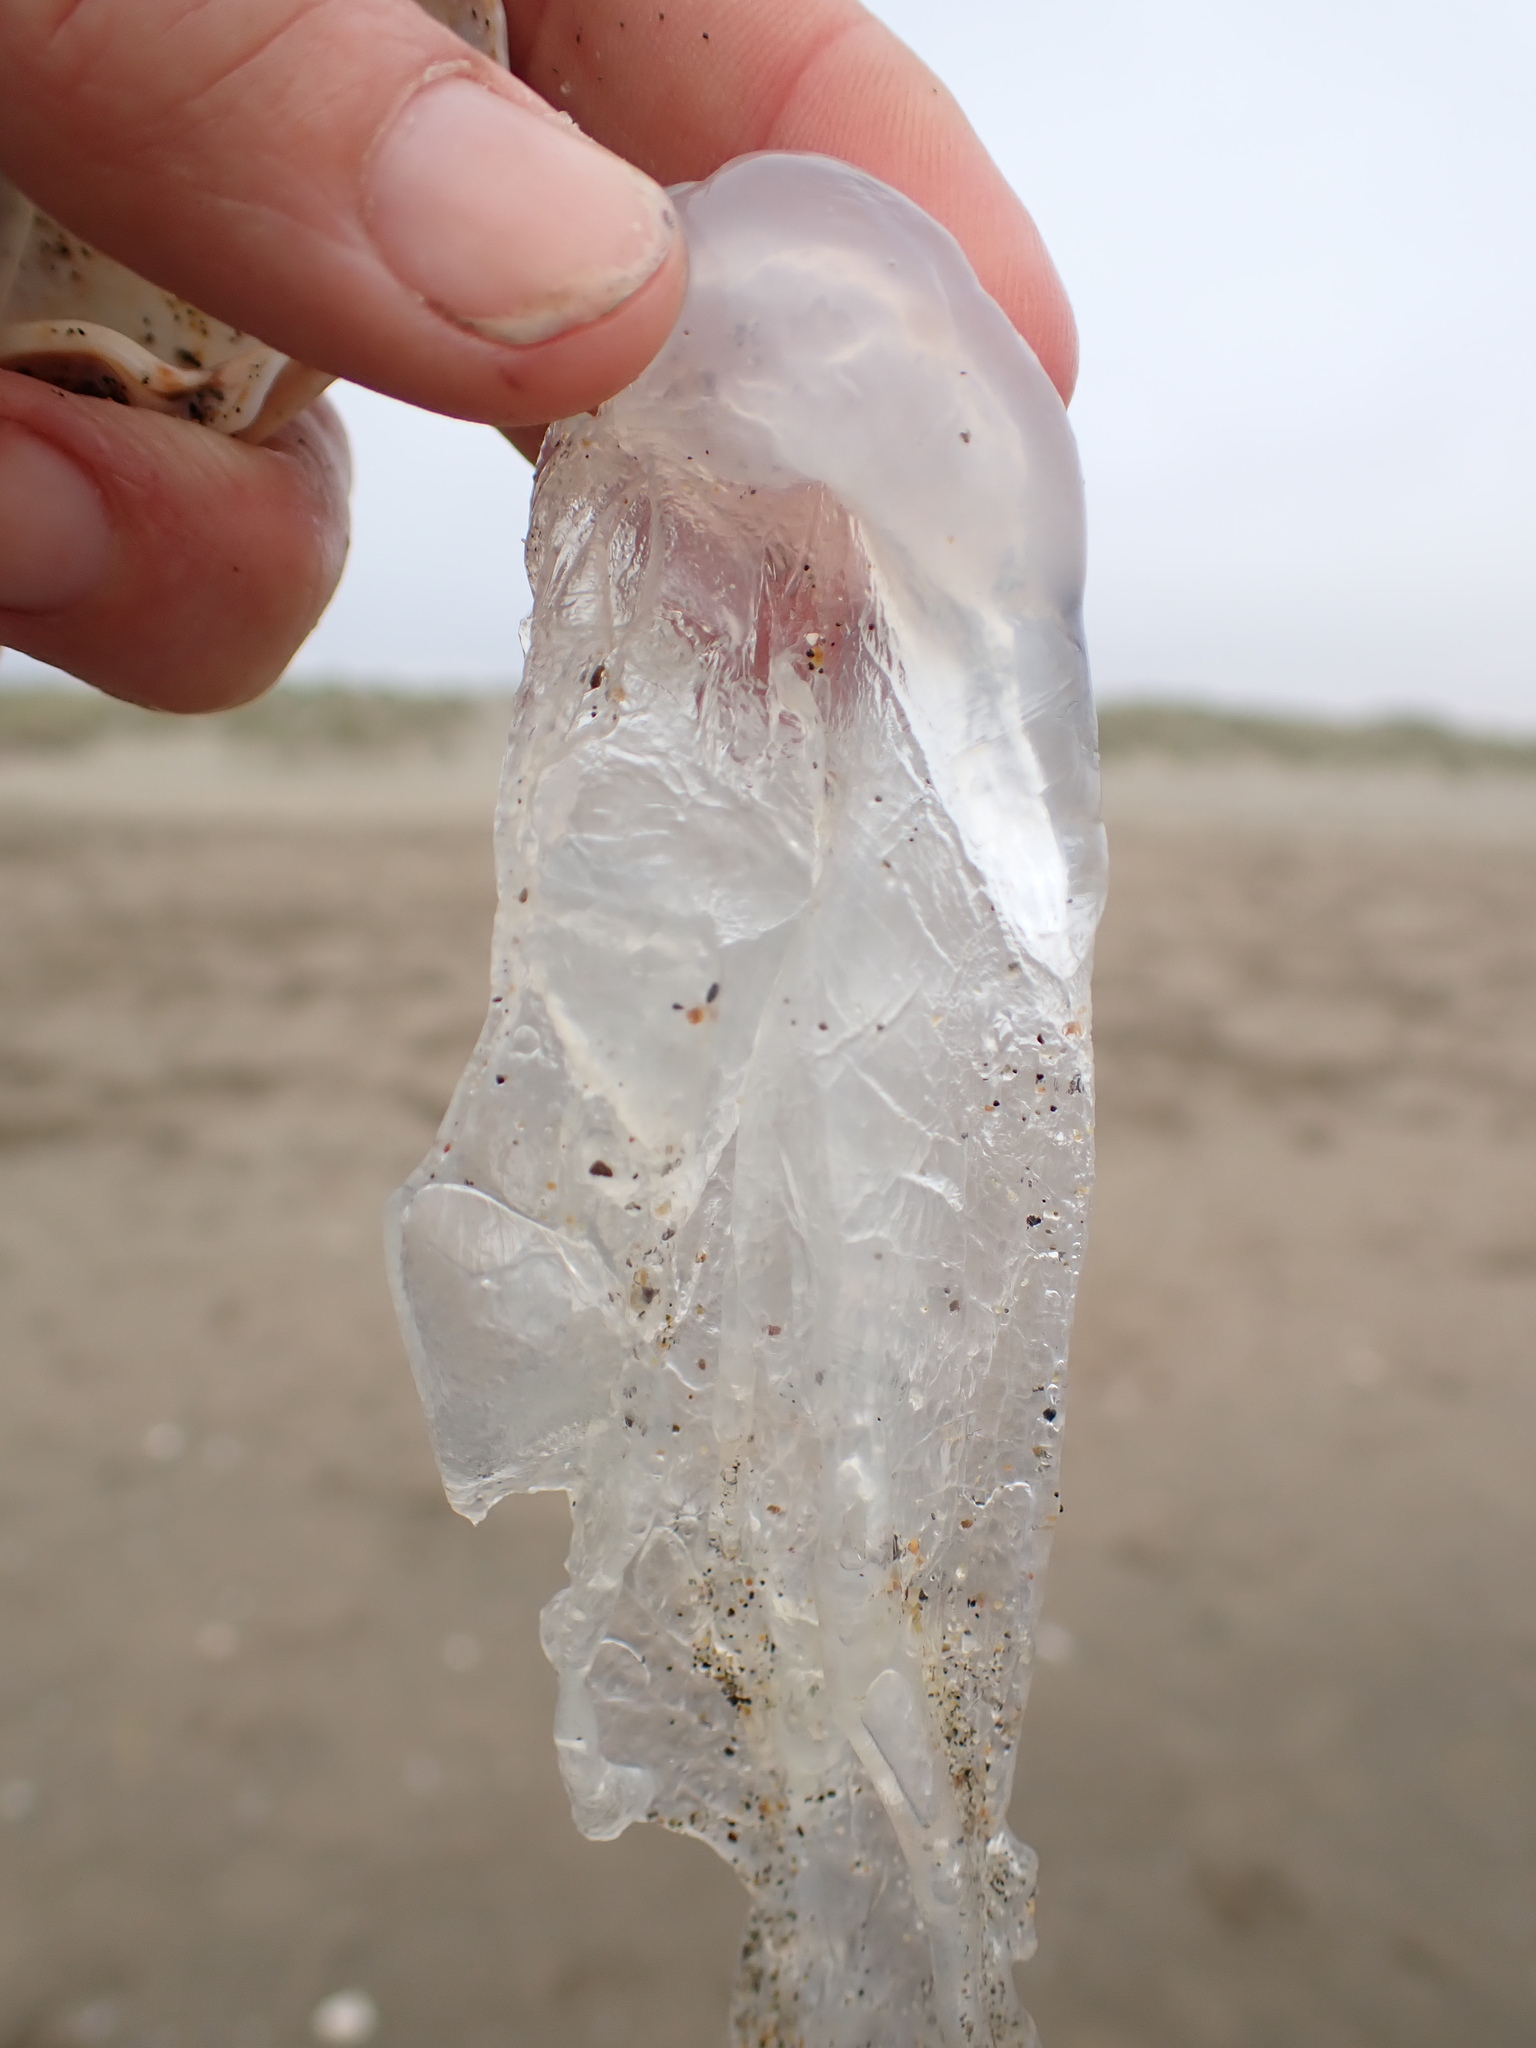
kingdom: Animalia
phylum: Chordata
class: Thaliacea
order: Salpida
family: Salpidae
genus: Thetys
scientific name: Thetys vagina
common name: Vagina salp
